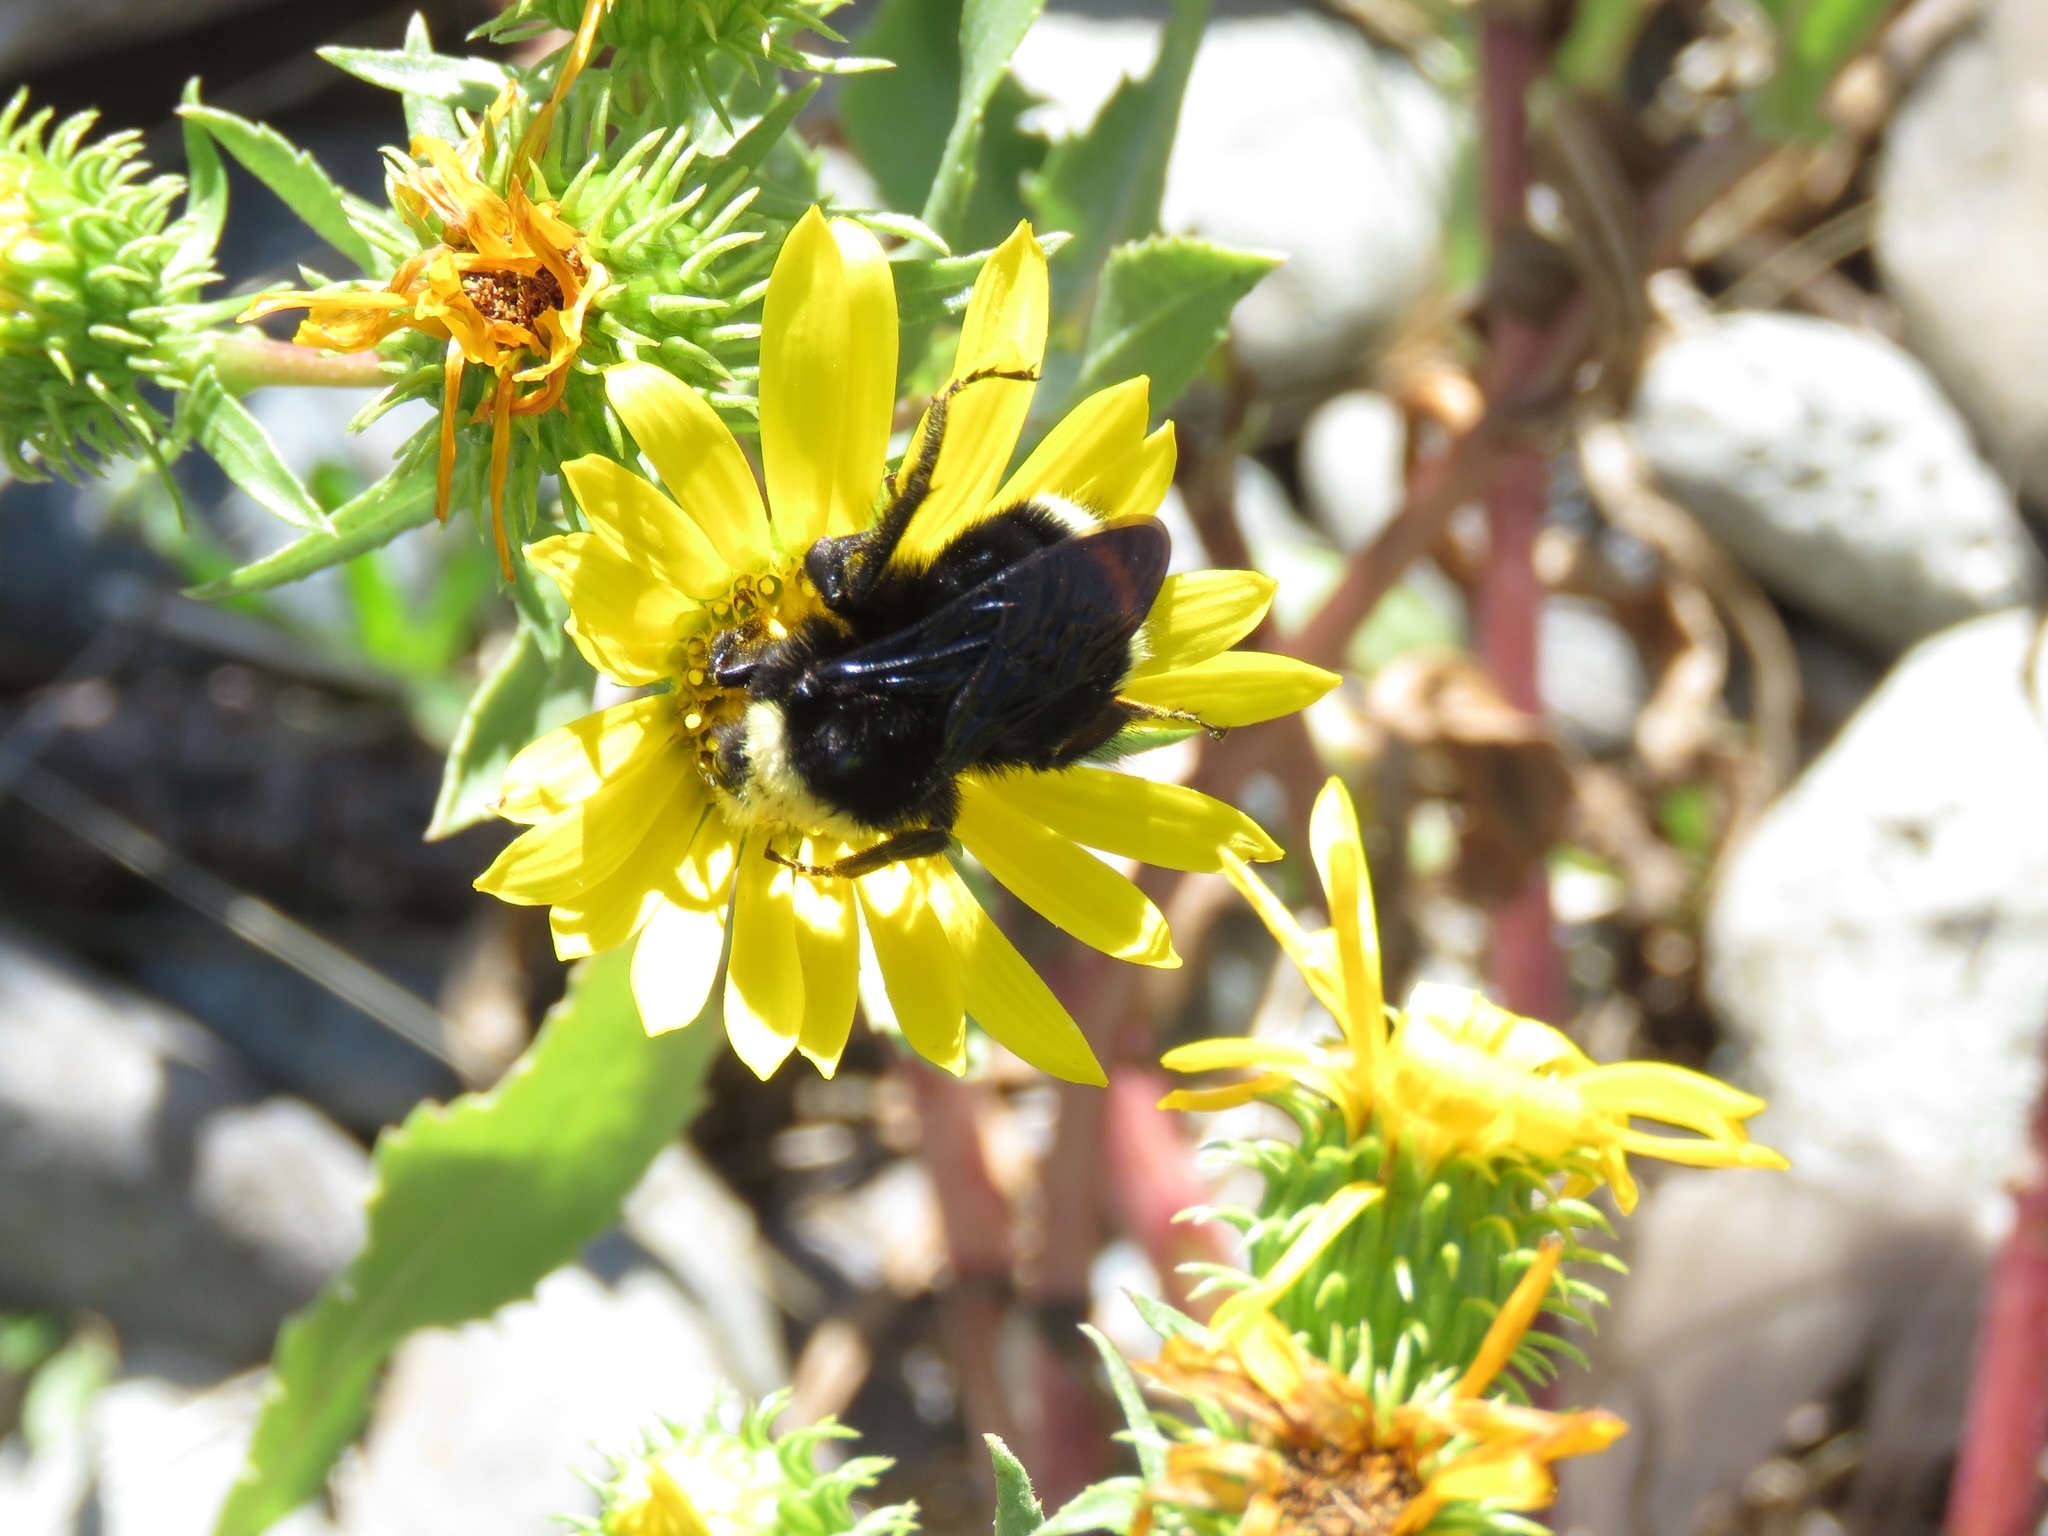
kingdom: Animalia
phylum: Arthropoda
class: Insecta
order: Hymenoptera
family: Apidae
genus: Bombus
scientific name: Bombus vosnesenskii
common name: Vosnesensky bumble bee
